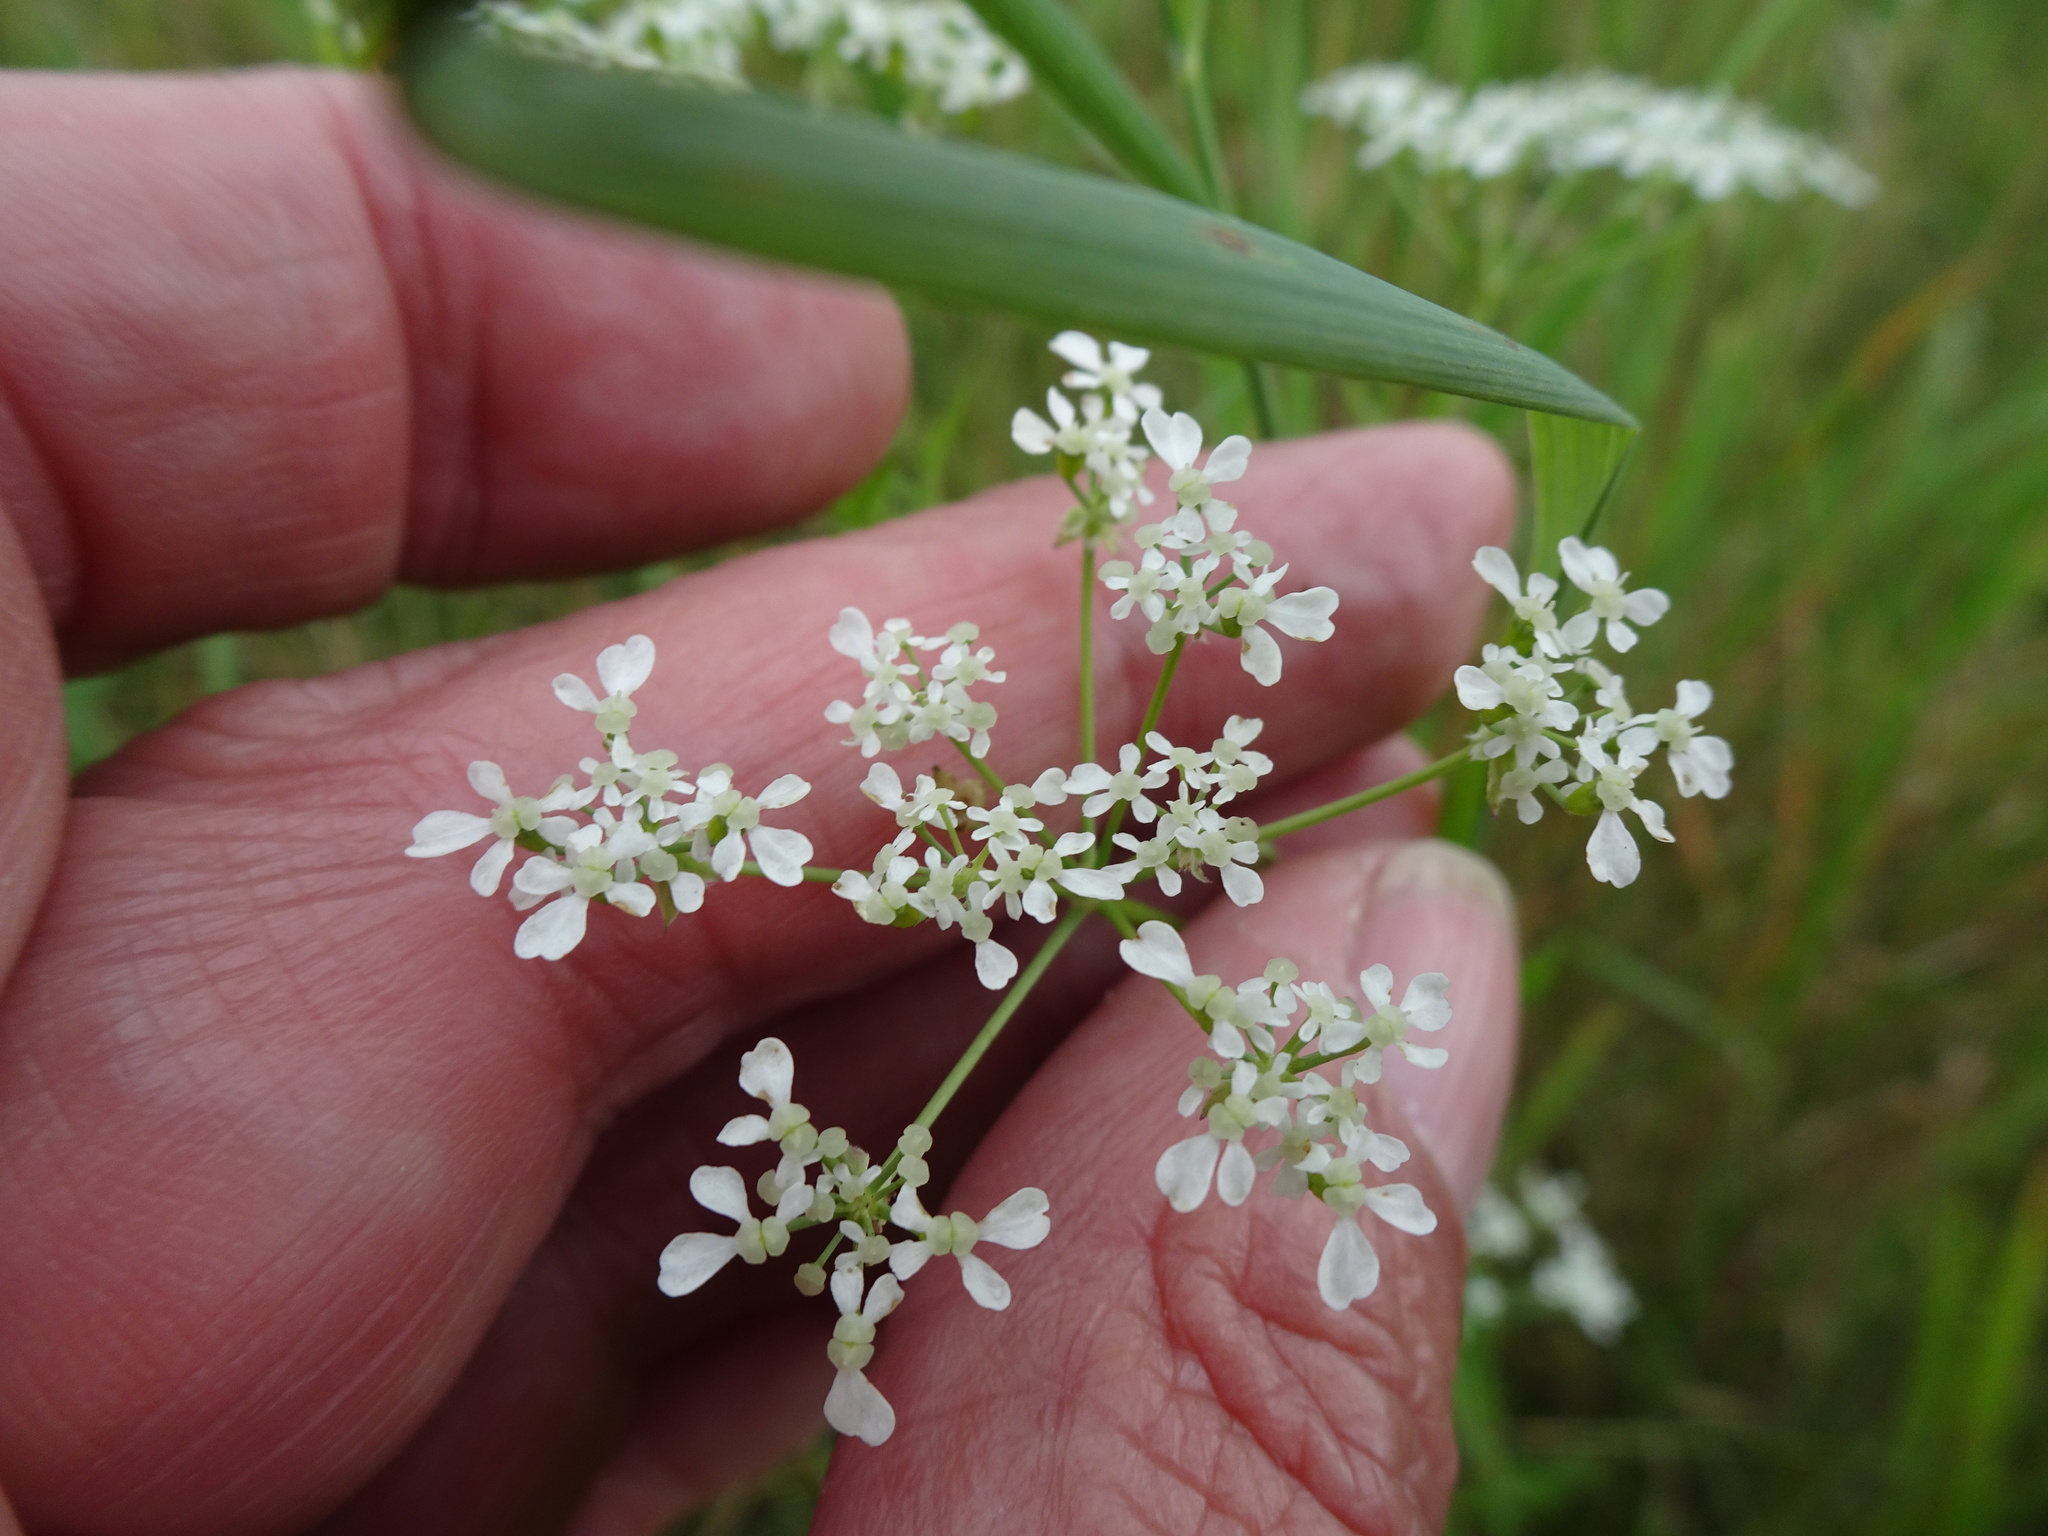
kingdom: Plantae
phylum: Tracheophyta
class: Magnoliopsida
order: Apiales
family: Apiaceae
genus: Pimpinella
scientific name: Pimpinella saxifraga
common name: Burnet-saxifrage
